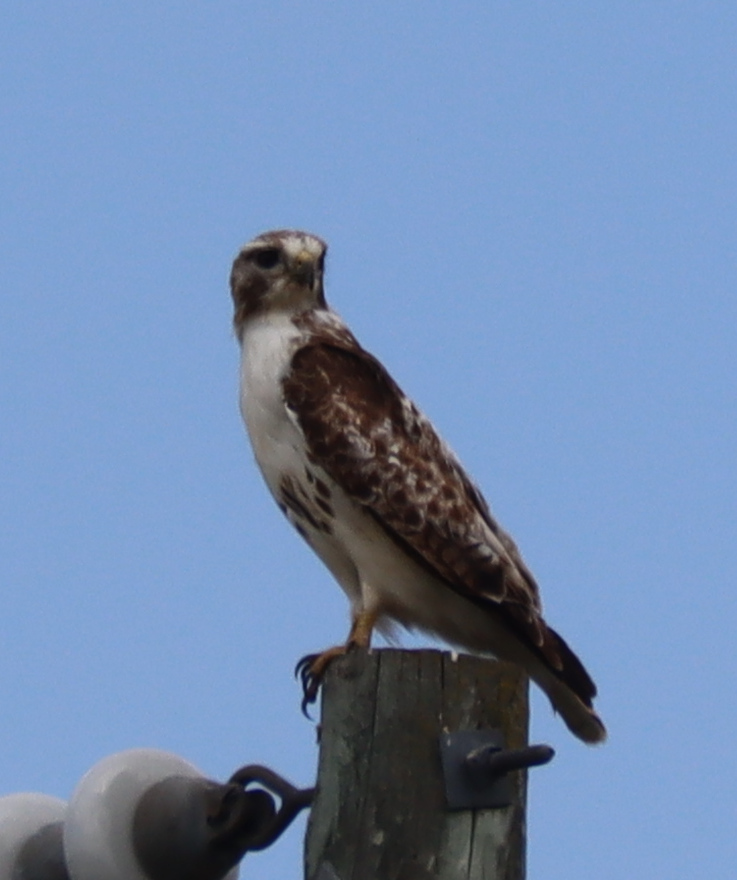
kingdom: Animalia
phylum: Chordata
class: Aves
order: Accipitriformes
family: Accipitridae
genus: Buteo
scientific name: Buteo jamaicensis
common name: Red-tailed hawk
